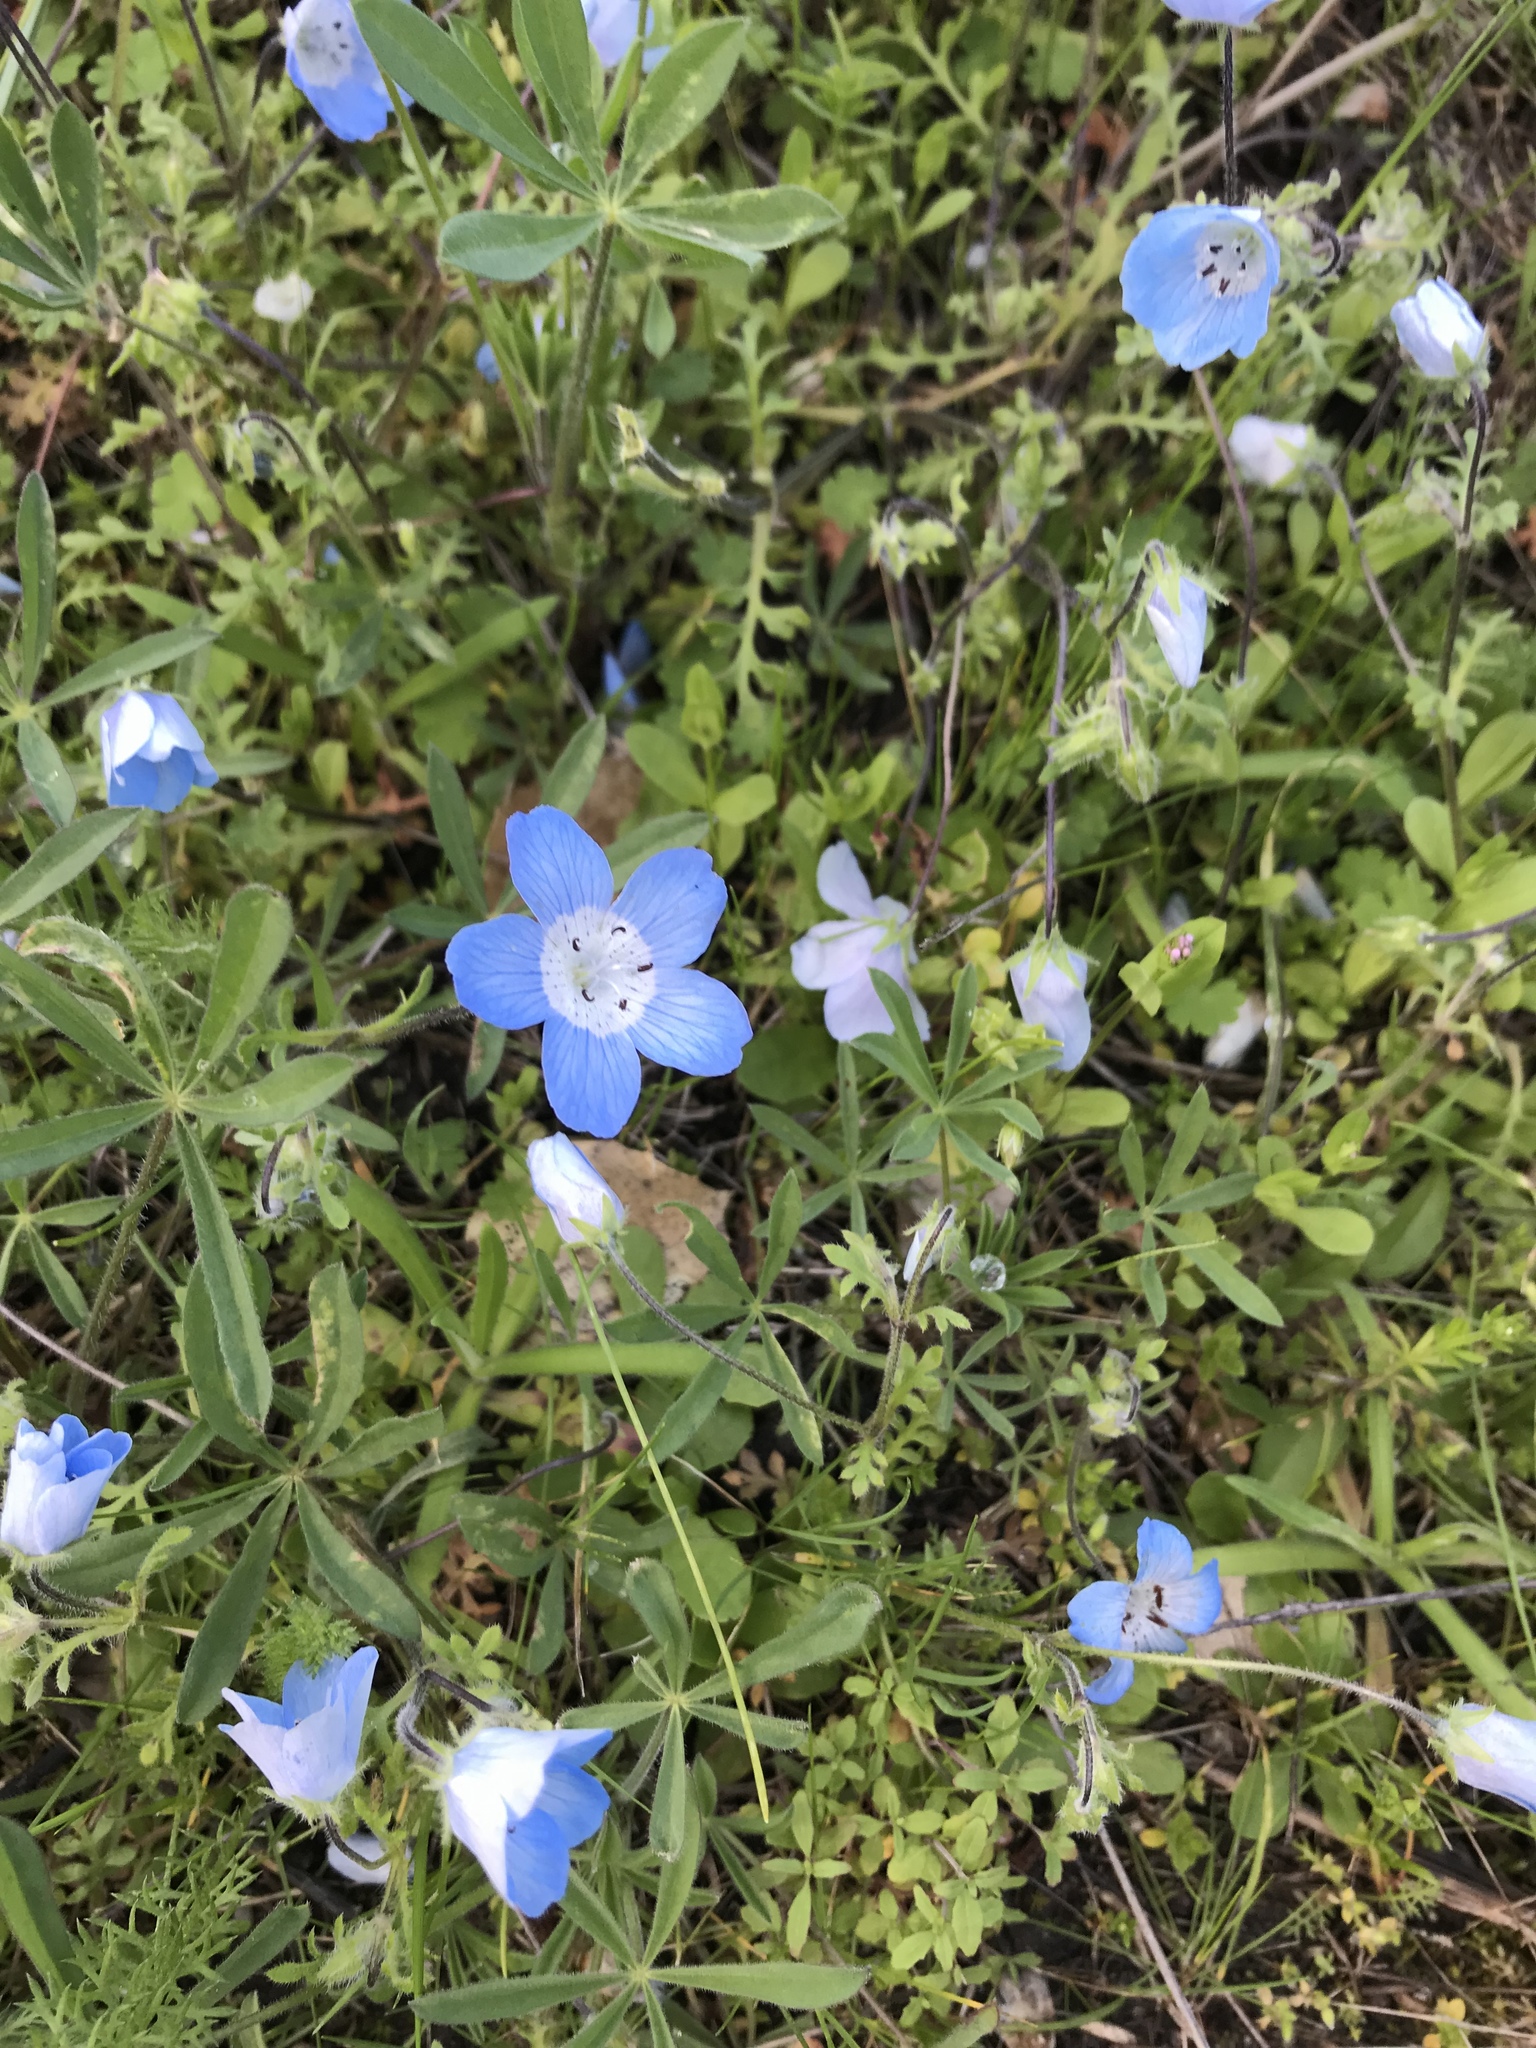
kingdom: Plantae
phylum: Tracheophyta
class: Magnoliopsida
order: Boraginales
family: Hydrophyllaceae
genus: Nemophila
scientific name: Nemophila menziesii
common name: Baby's-blue-eyes
